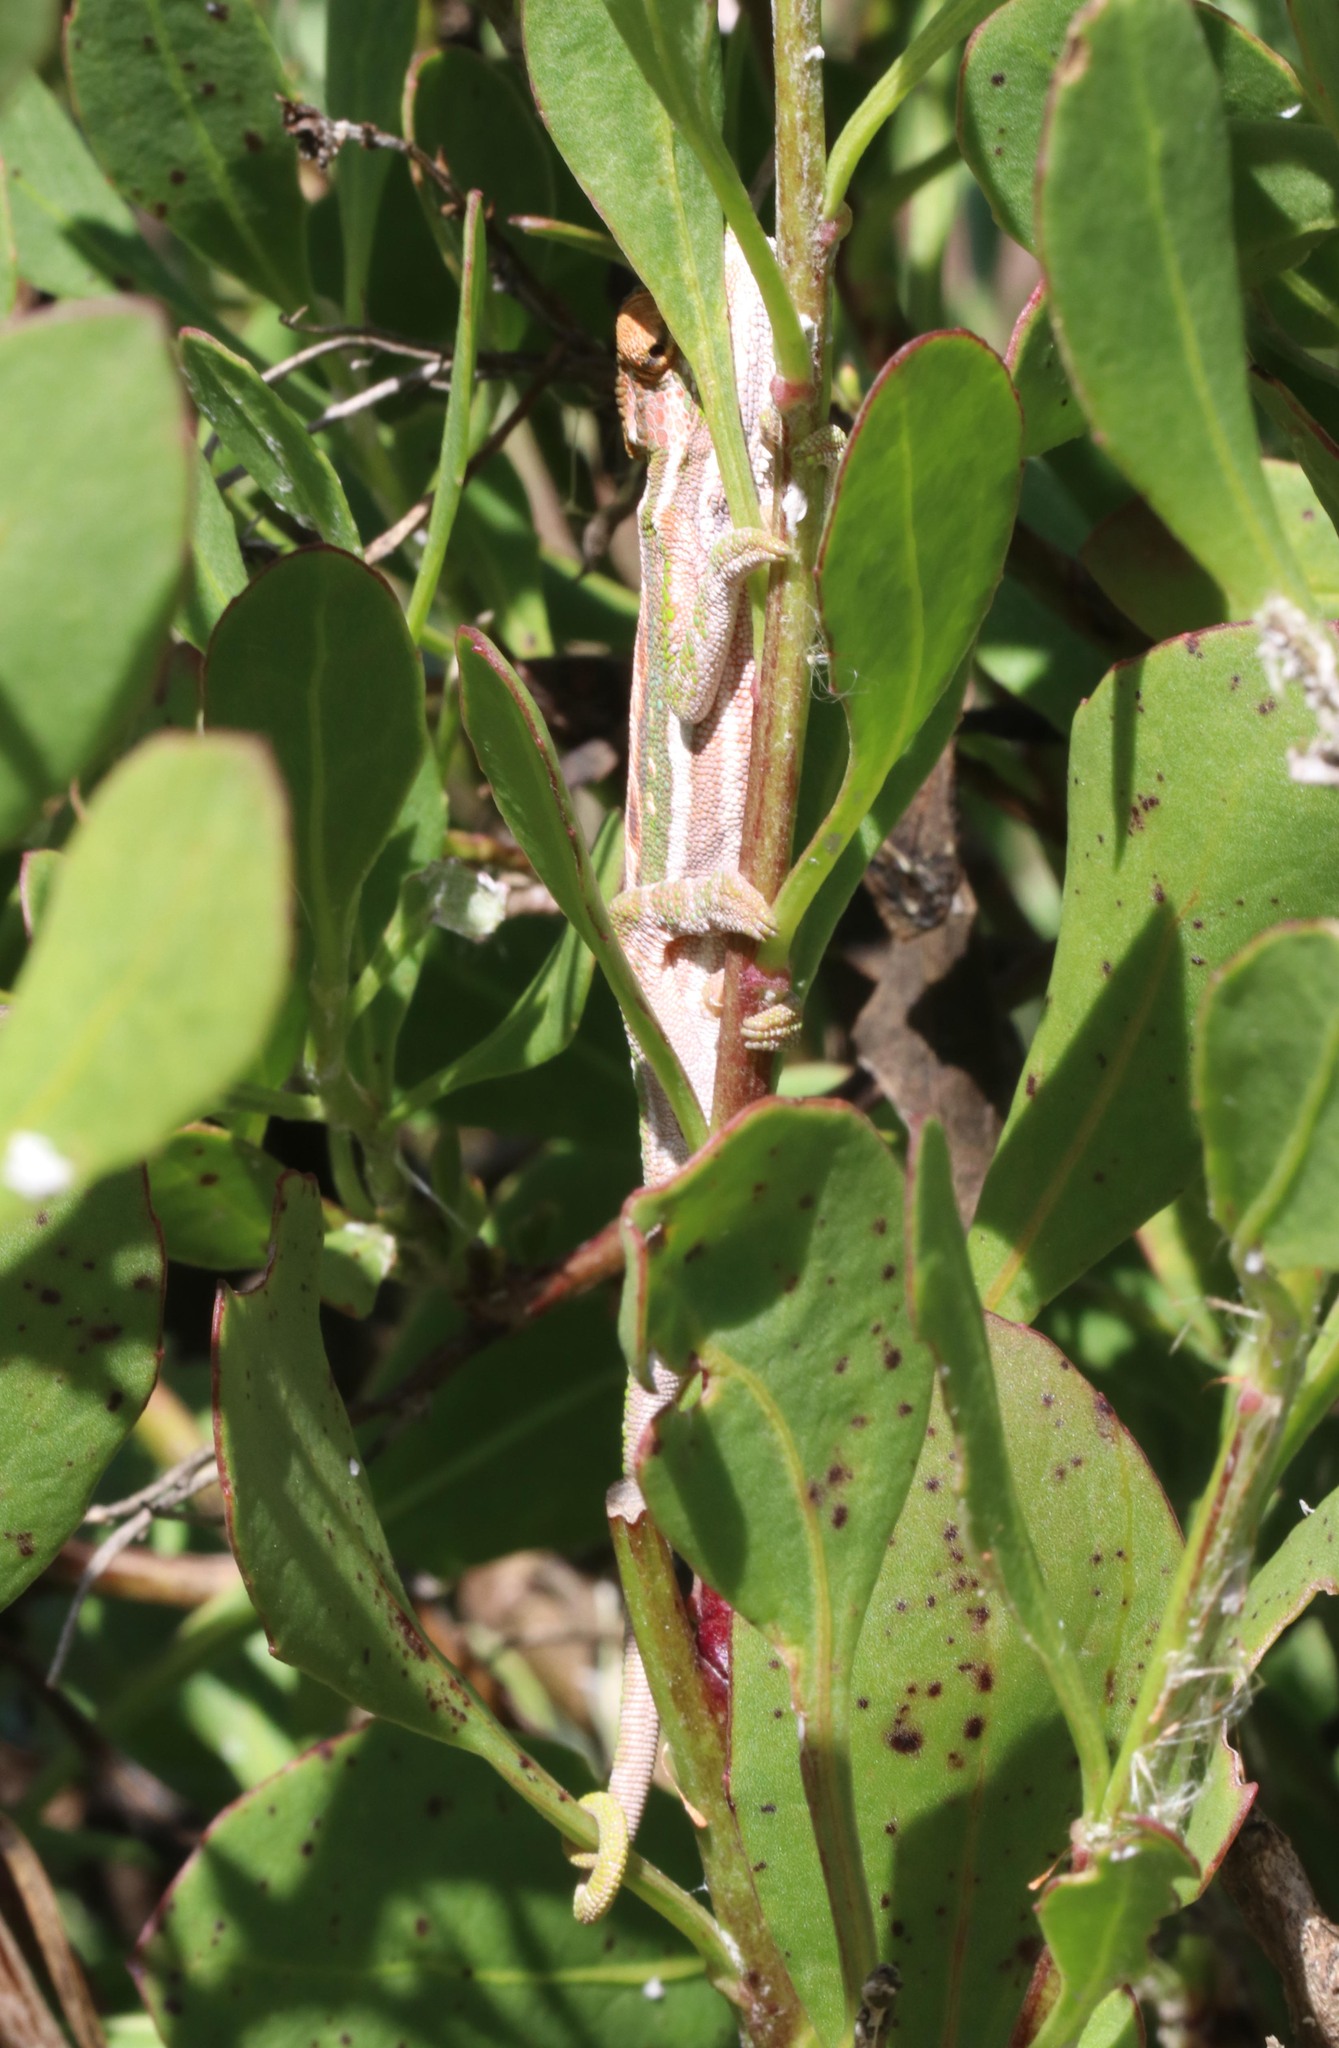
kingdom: Animalia
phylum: Chordata
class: Squamata
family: Chamaeleonidae
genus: Bradypodion
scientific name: Bradypodion pumilum
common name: Cape dwarf chameleon
